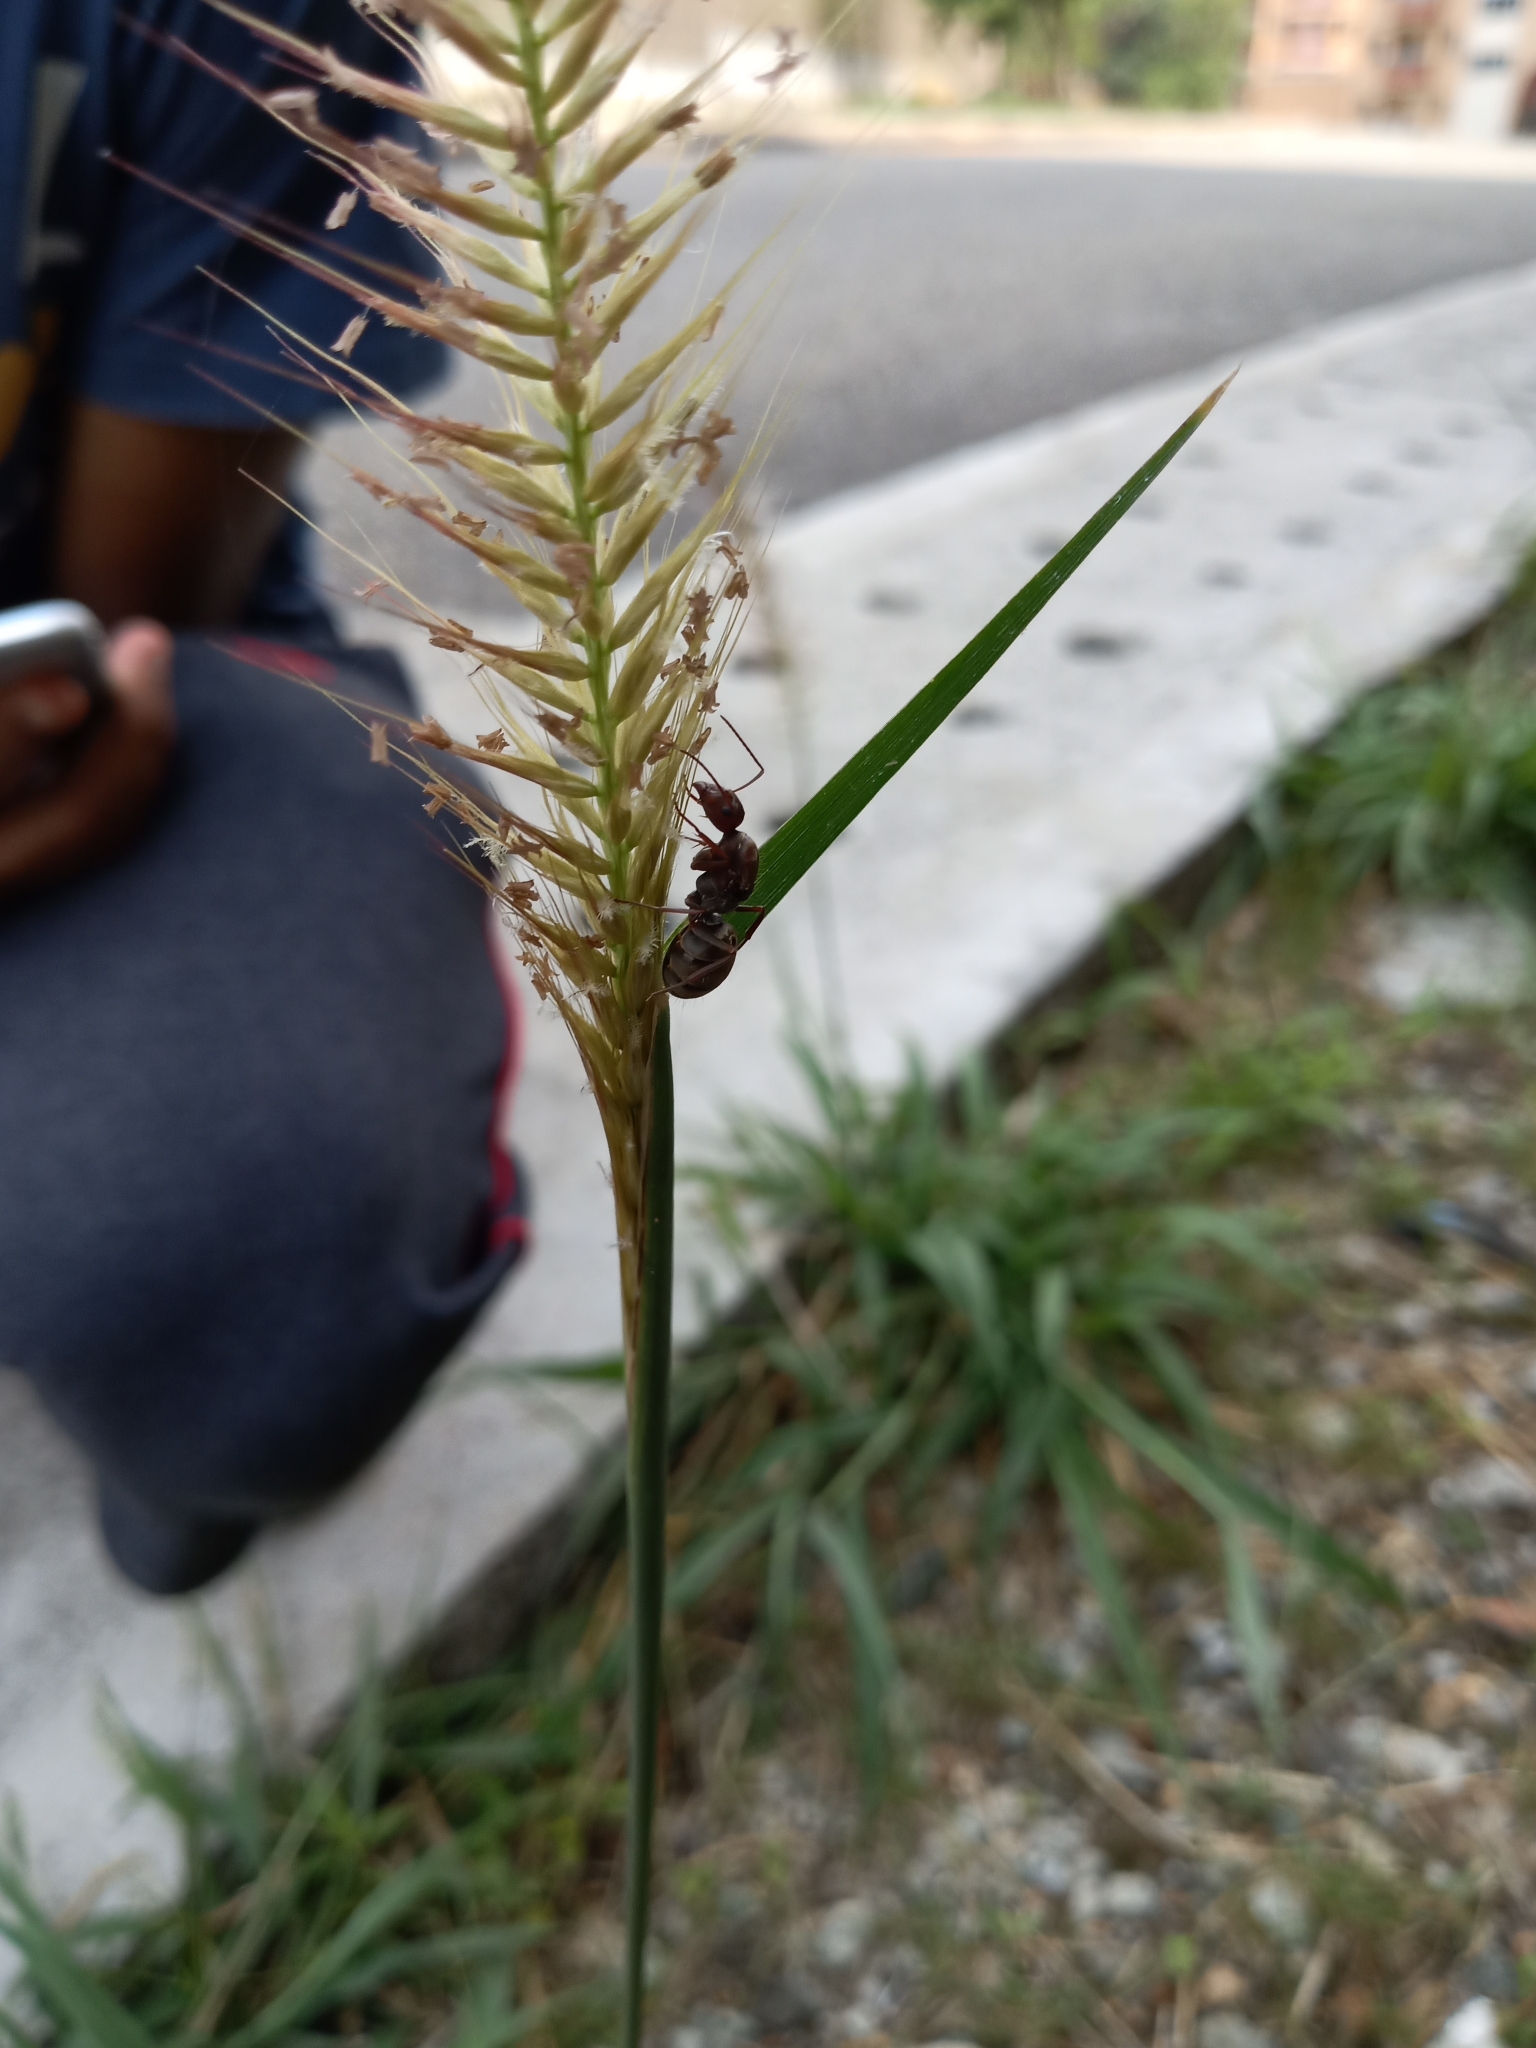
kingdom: Animalia
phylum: Arthropoda
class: Insecta
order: Hymenoptera
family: Formicidae
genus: Camponotus
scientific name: Camponotus rufoglaucus
